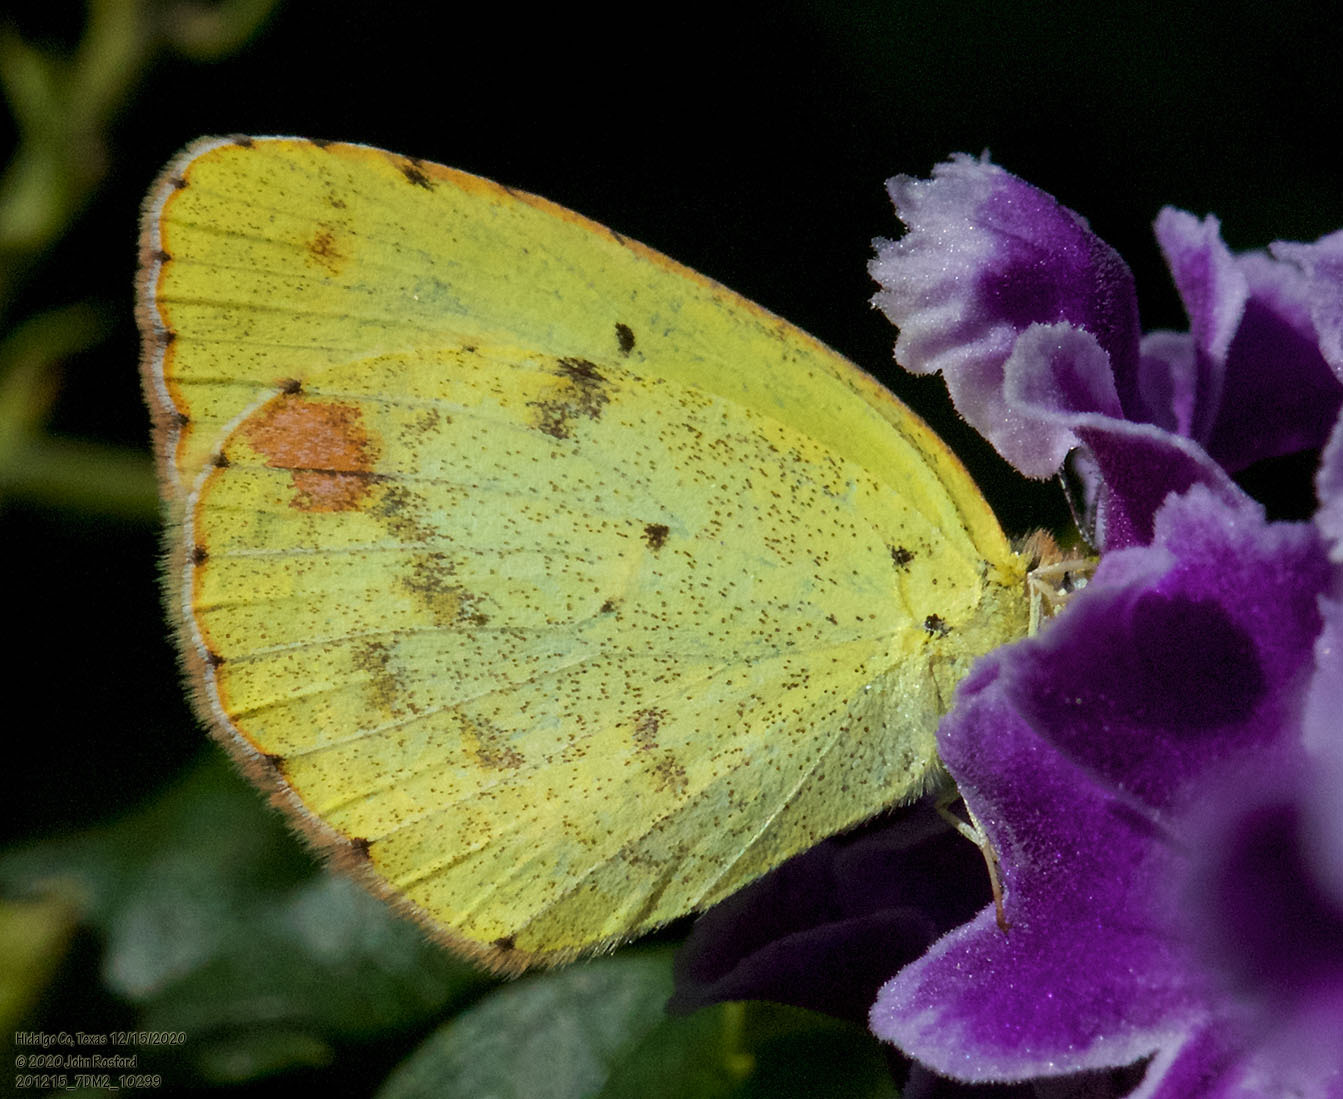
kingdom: Animalia
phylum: Arthropoda
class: Insecta
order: Lepidoptera
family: Pieridae
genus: Pyrisitia
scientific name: Pyrisitia lisa
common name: Little yellow
